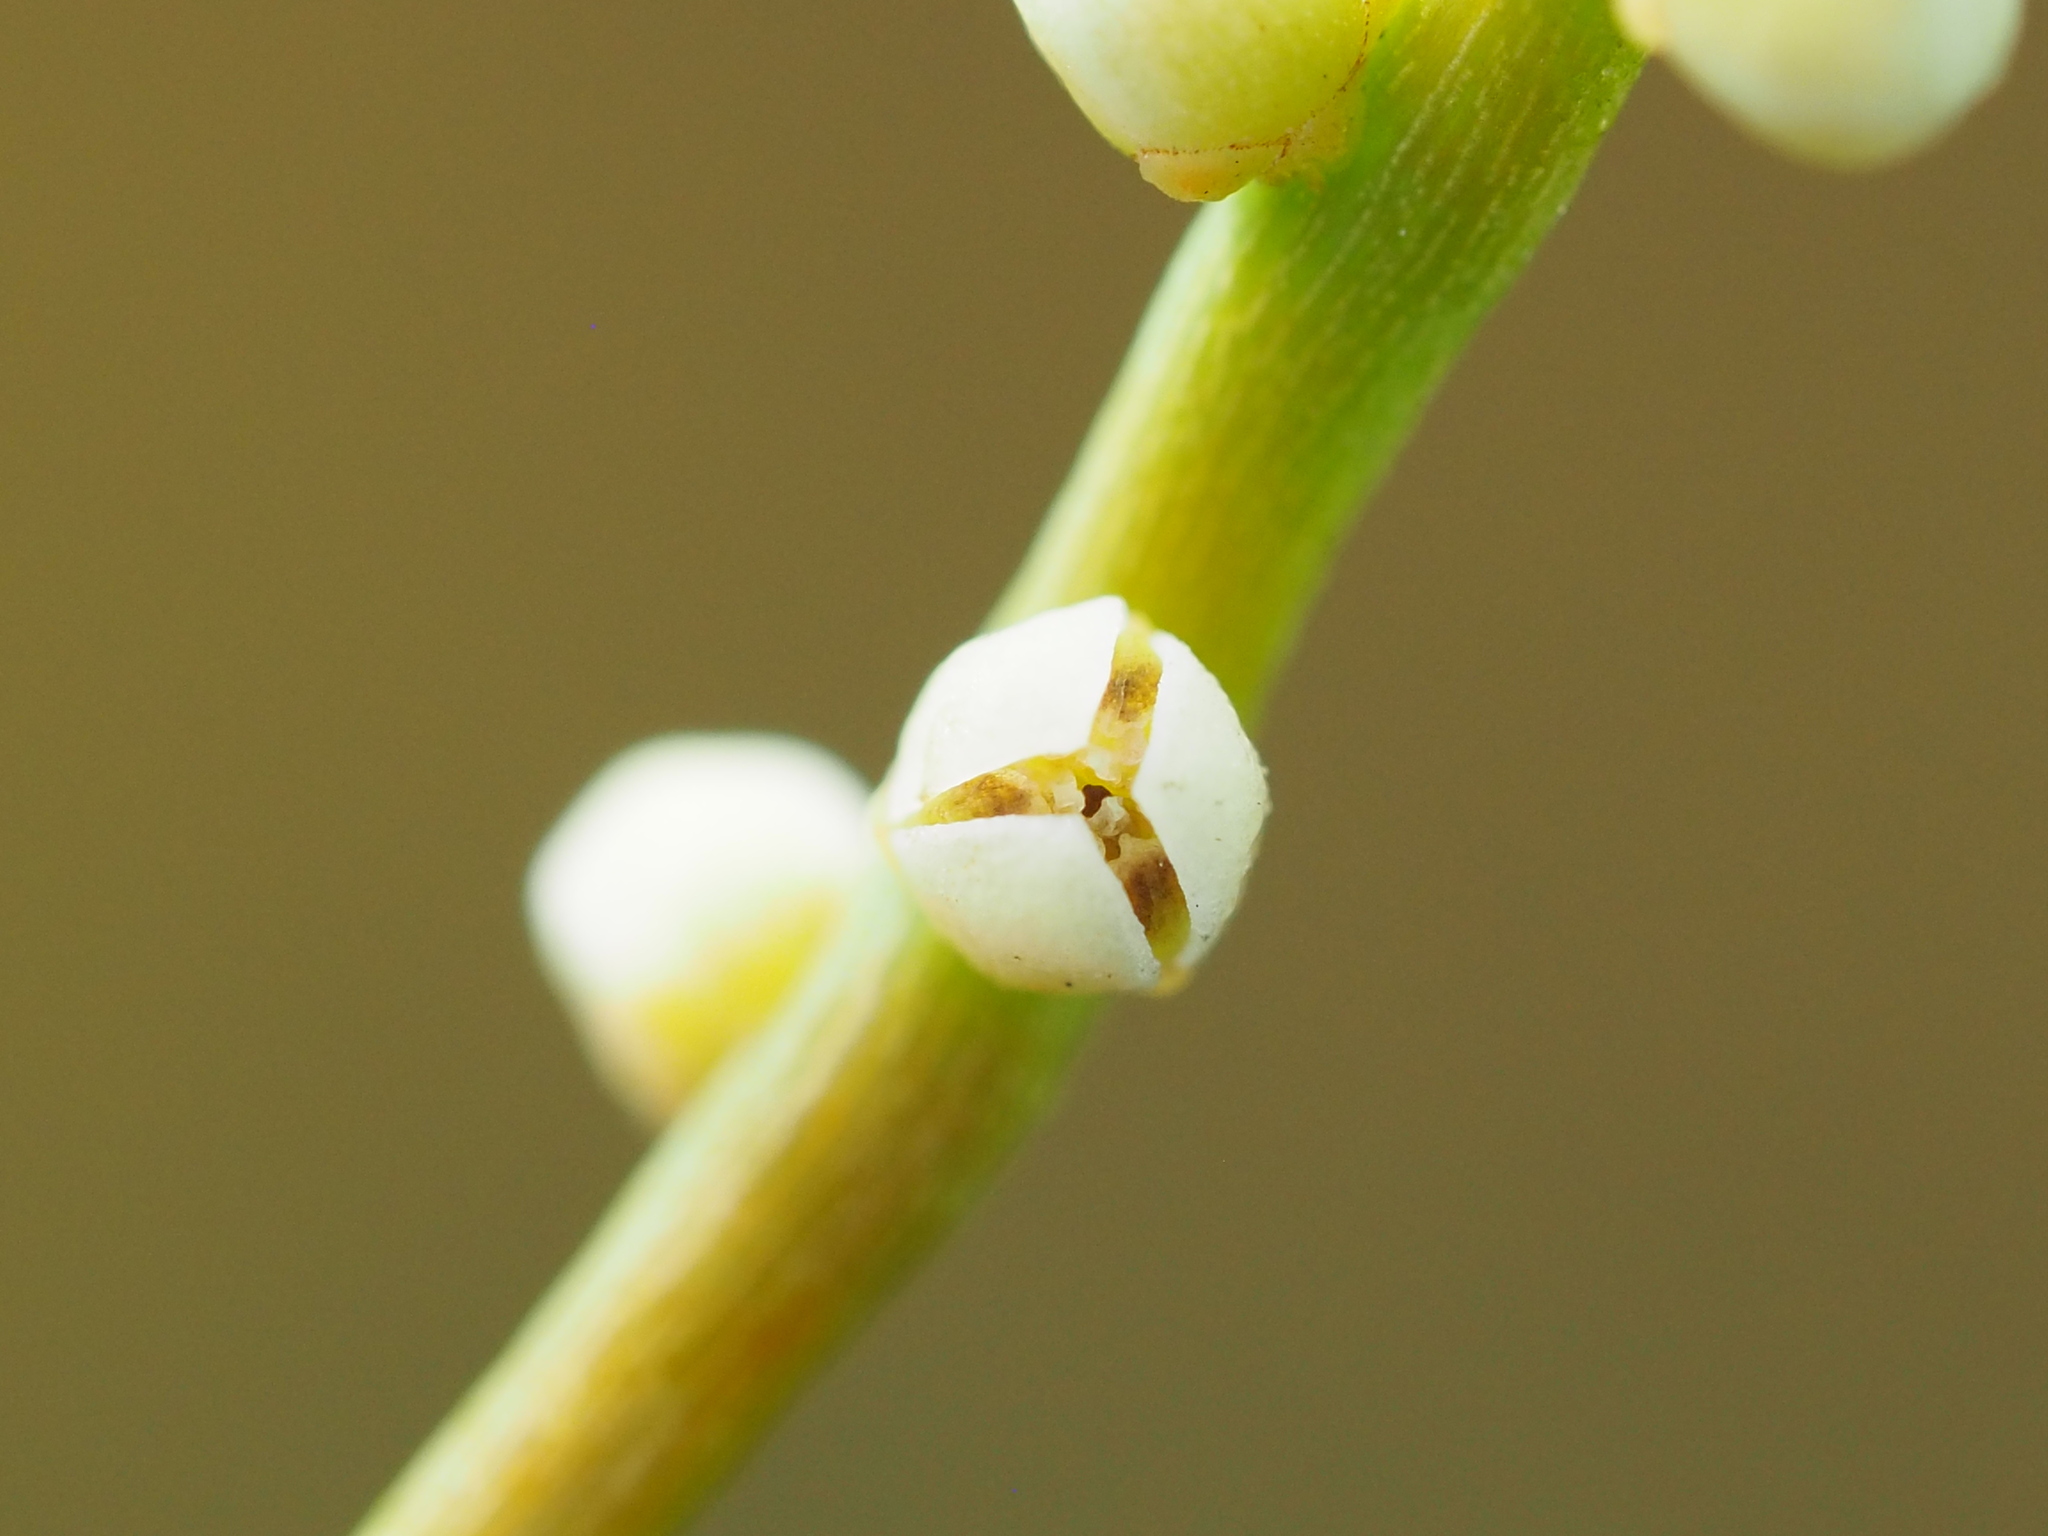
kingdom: Plantae
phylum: Tracheophyta
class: Magnoliopsida
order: Laurales
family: Lauraceae
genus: Cassytha
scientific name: Cassytha filiformis
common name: Dodder-laurel
